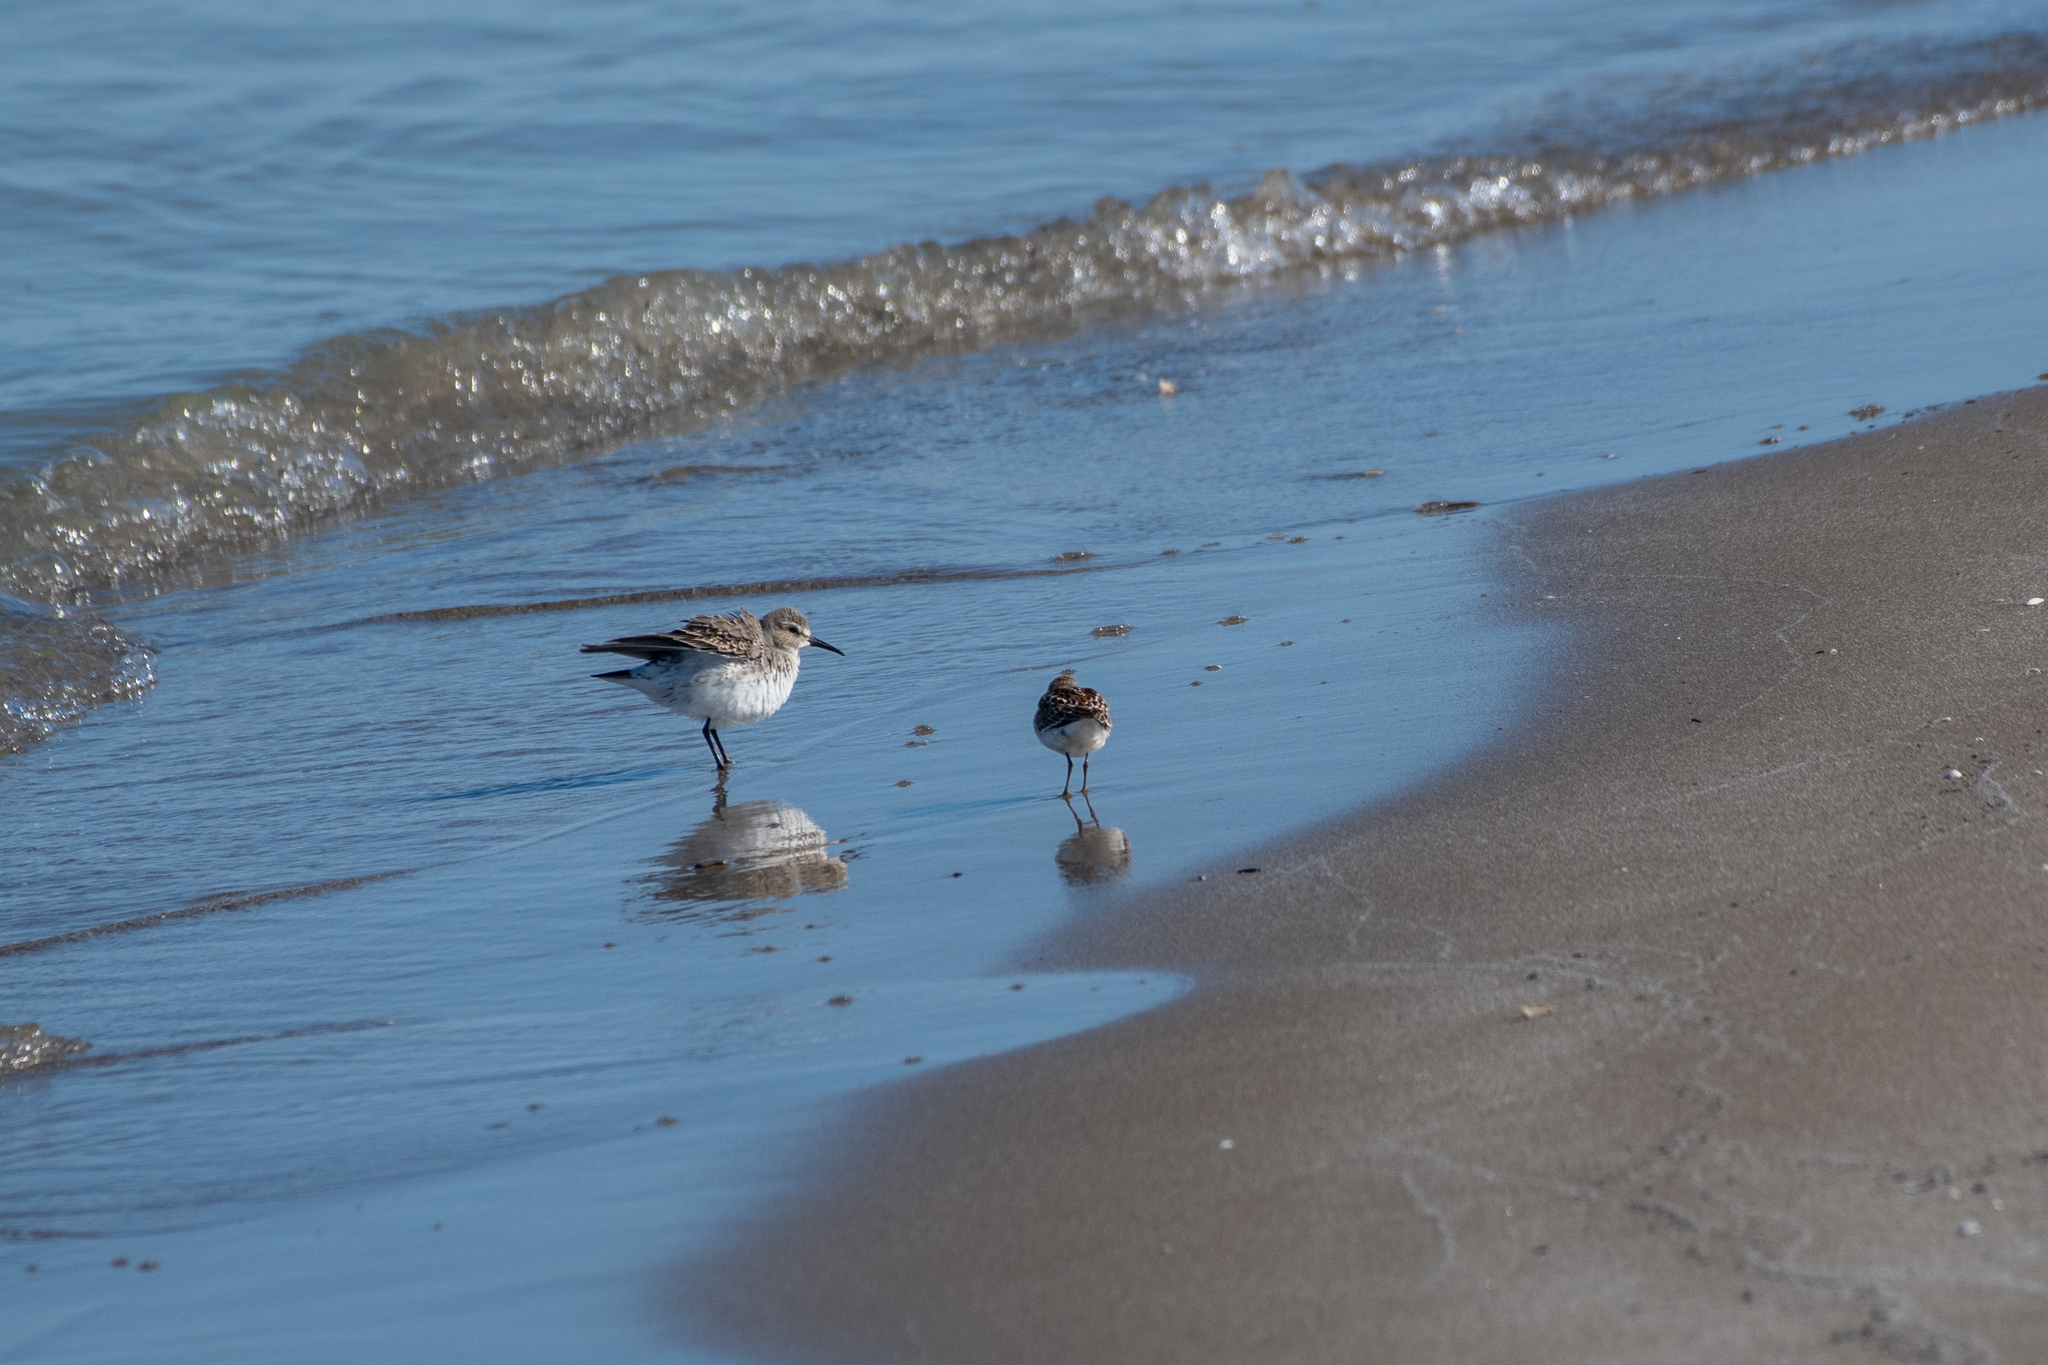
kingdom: Animalia
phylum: Chordata
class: Aves
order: Charadriiformes
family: Scolopacidae
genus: Calidris
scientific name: Calidris fuscicollis
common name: White-rumped sandpiper
